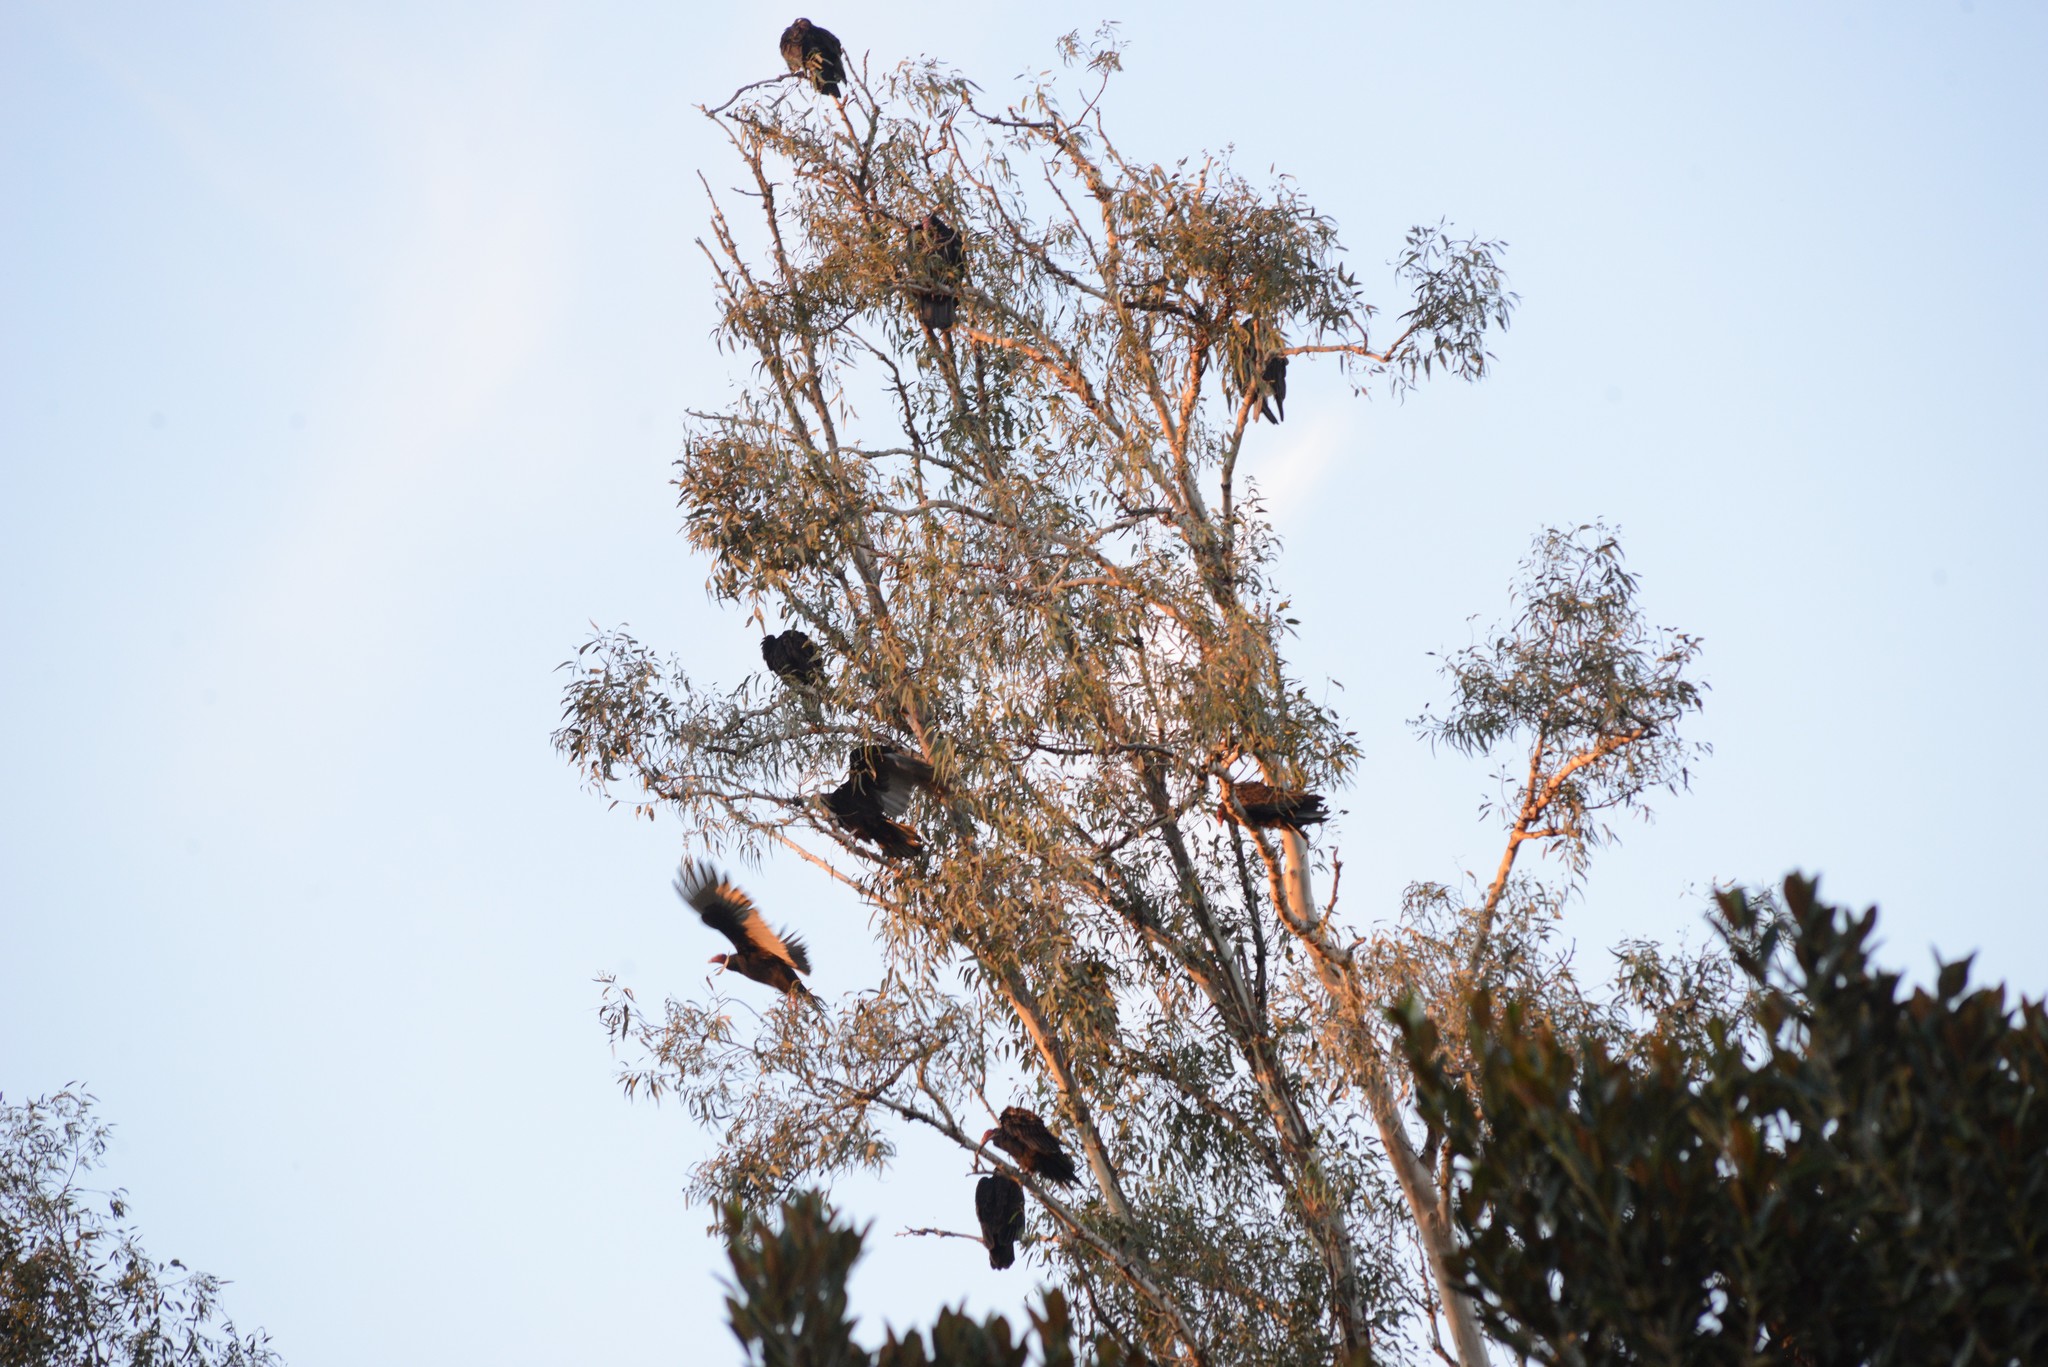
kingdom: Animalia
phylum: Chordata
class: Aves
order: Accipitriformes
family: Cathartidae
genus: Cathartes
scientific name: Cathartes aura
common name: Turkey vulture
